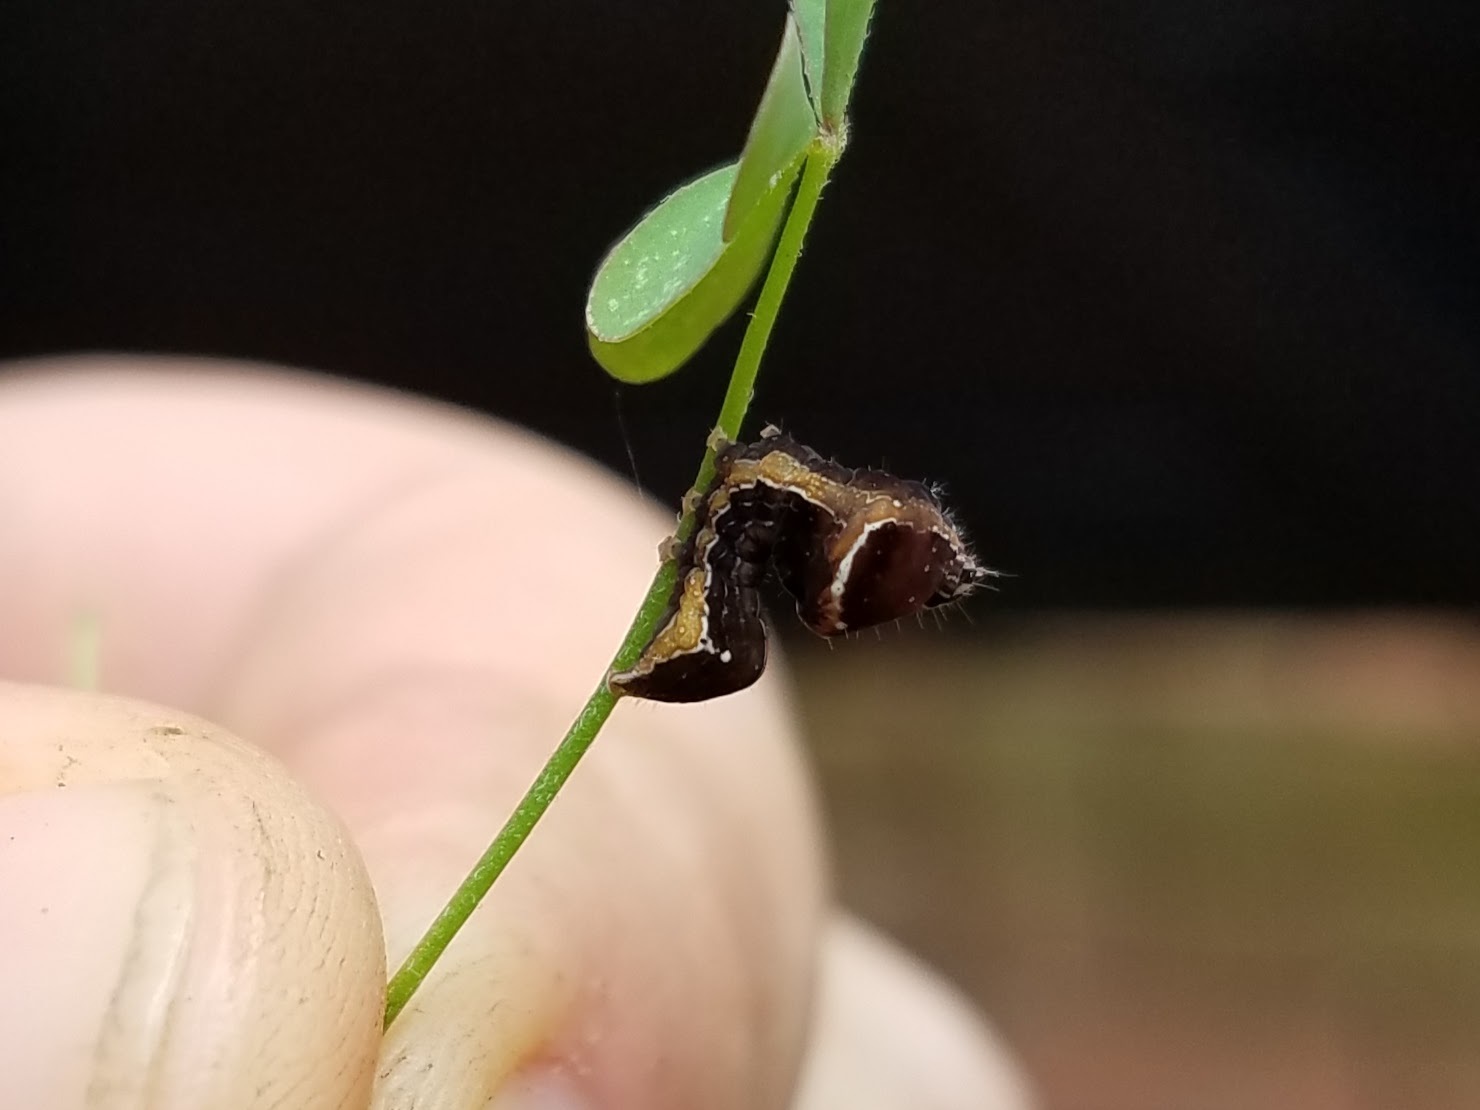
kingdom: Animalia
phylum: Arthropoda
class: Insecta
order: Lepidoptera
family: Noctuidae
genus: Galgula
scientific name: Galgula partita
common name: Wedgeling
